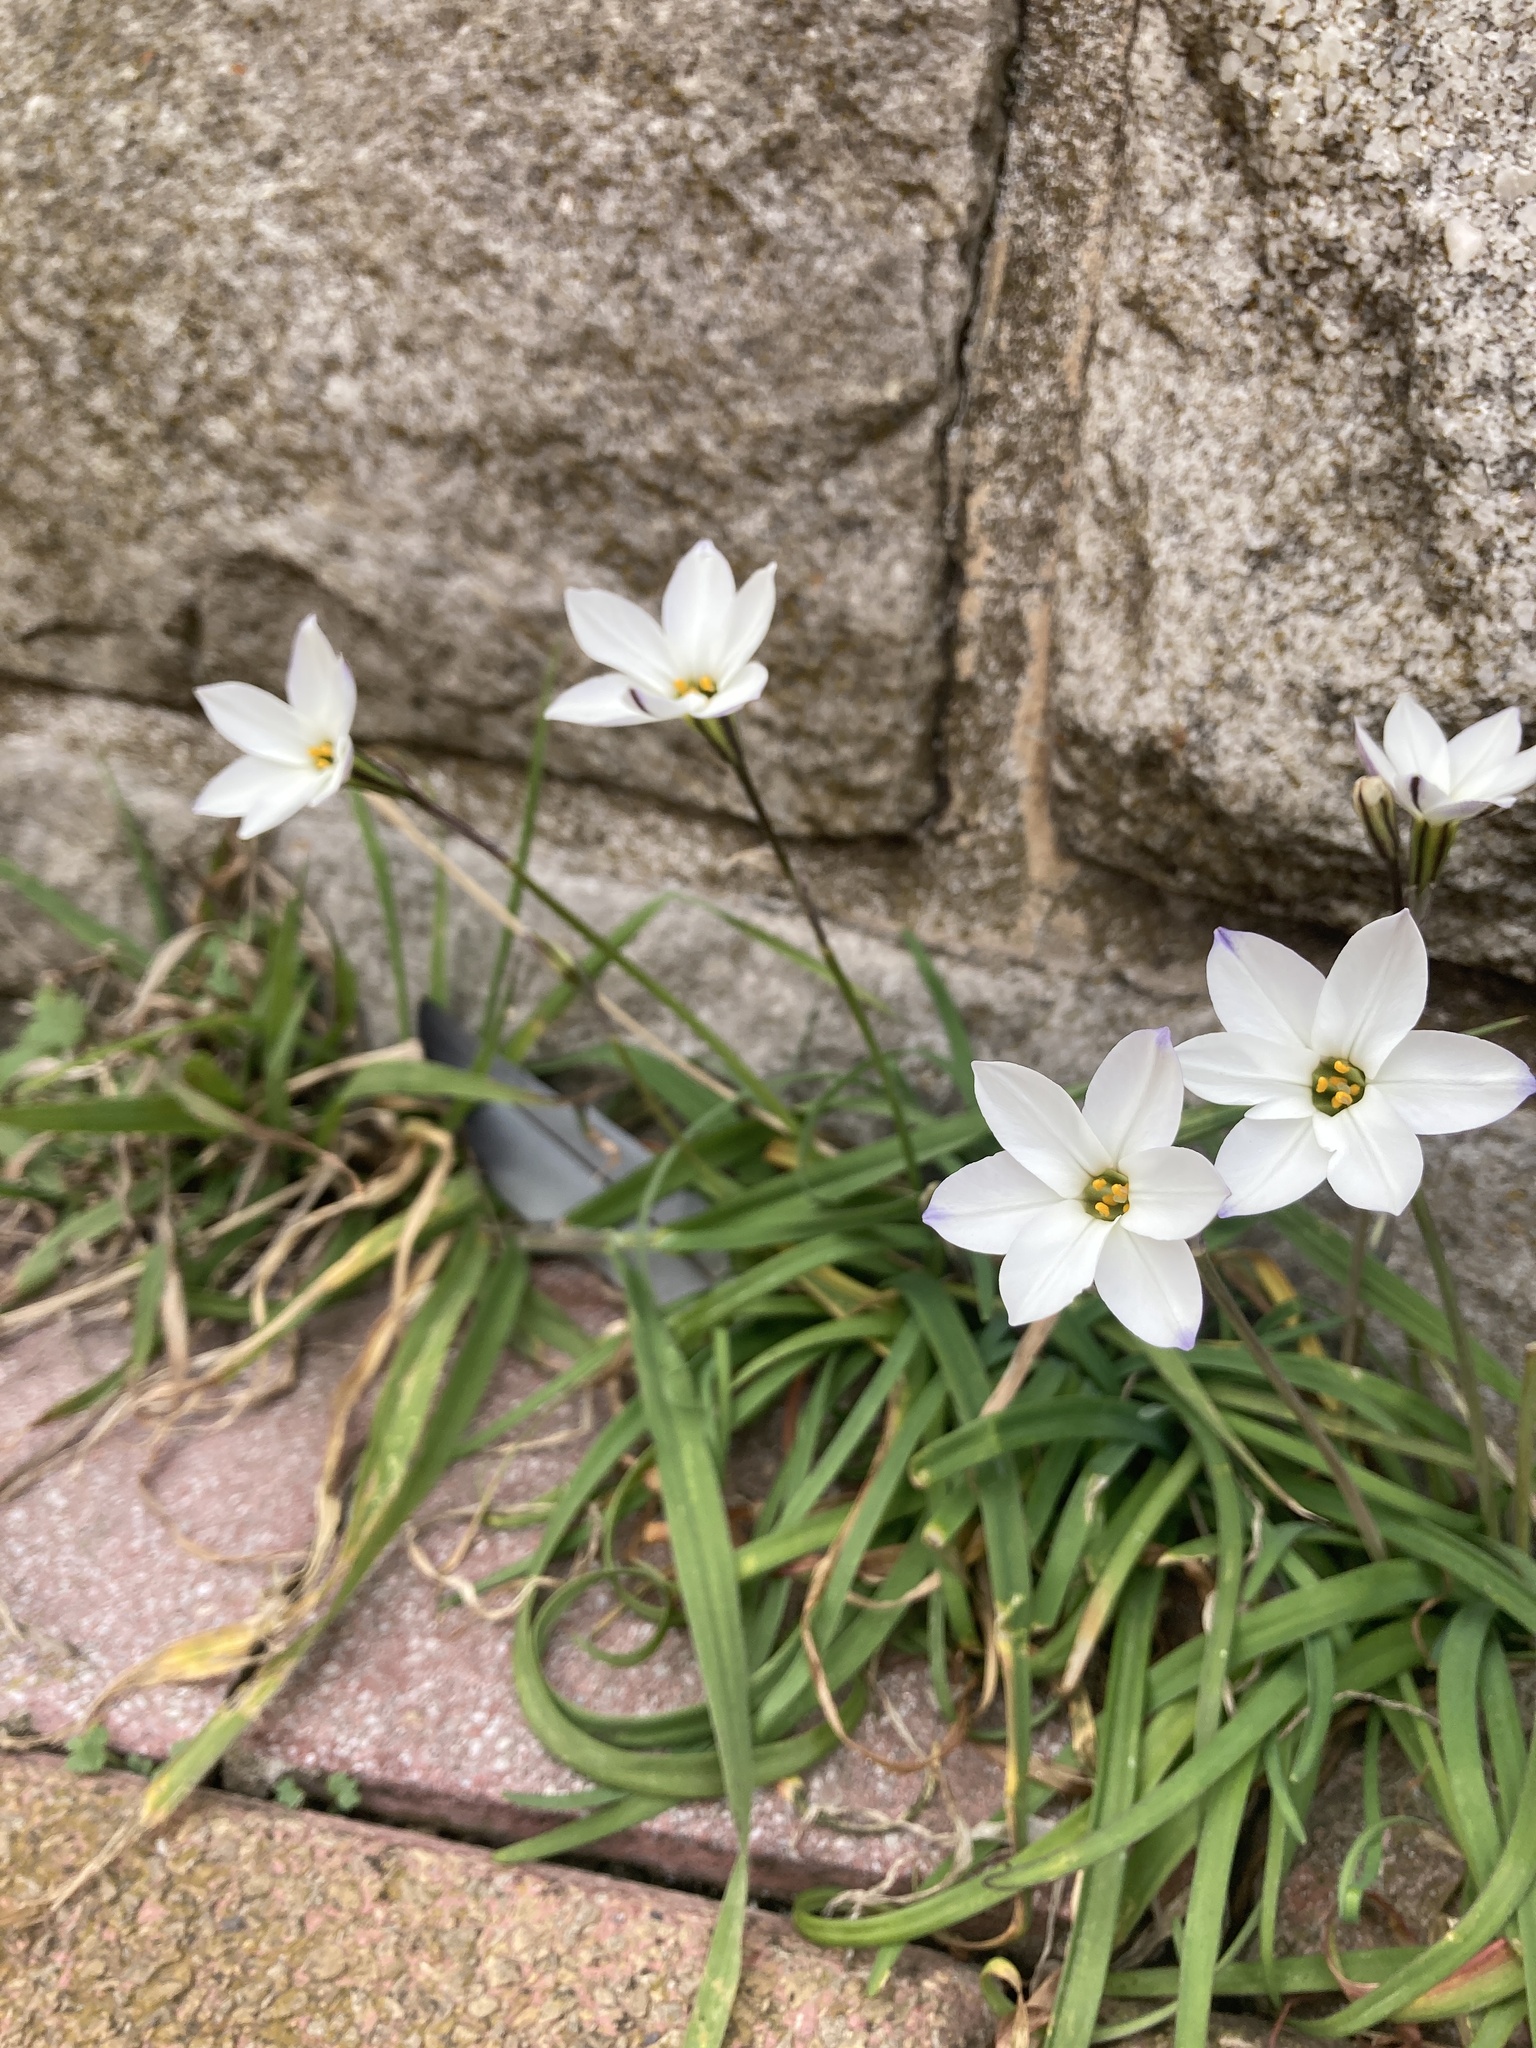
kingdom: Plantae
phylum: Tracheophyta
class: Liliopsida
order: Asparagales
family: Amaryllidaceae
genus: Ipheion
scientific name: Ipheion uniflorum
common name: Spring starflower
